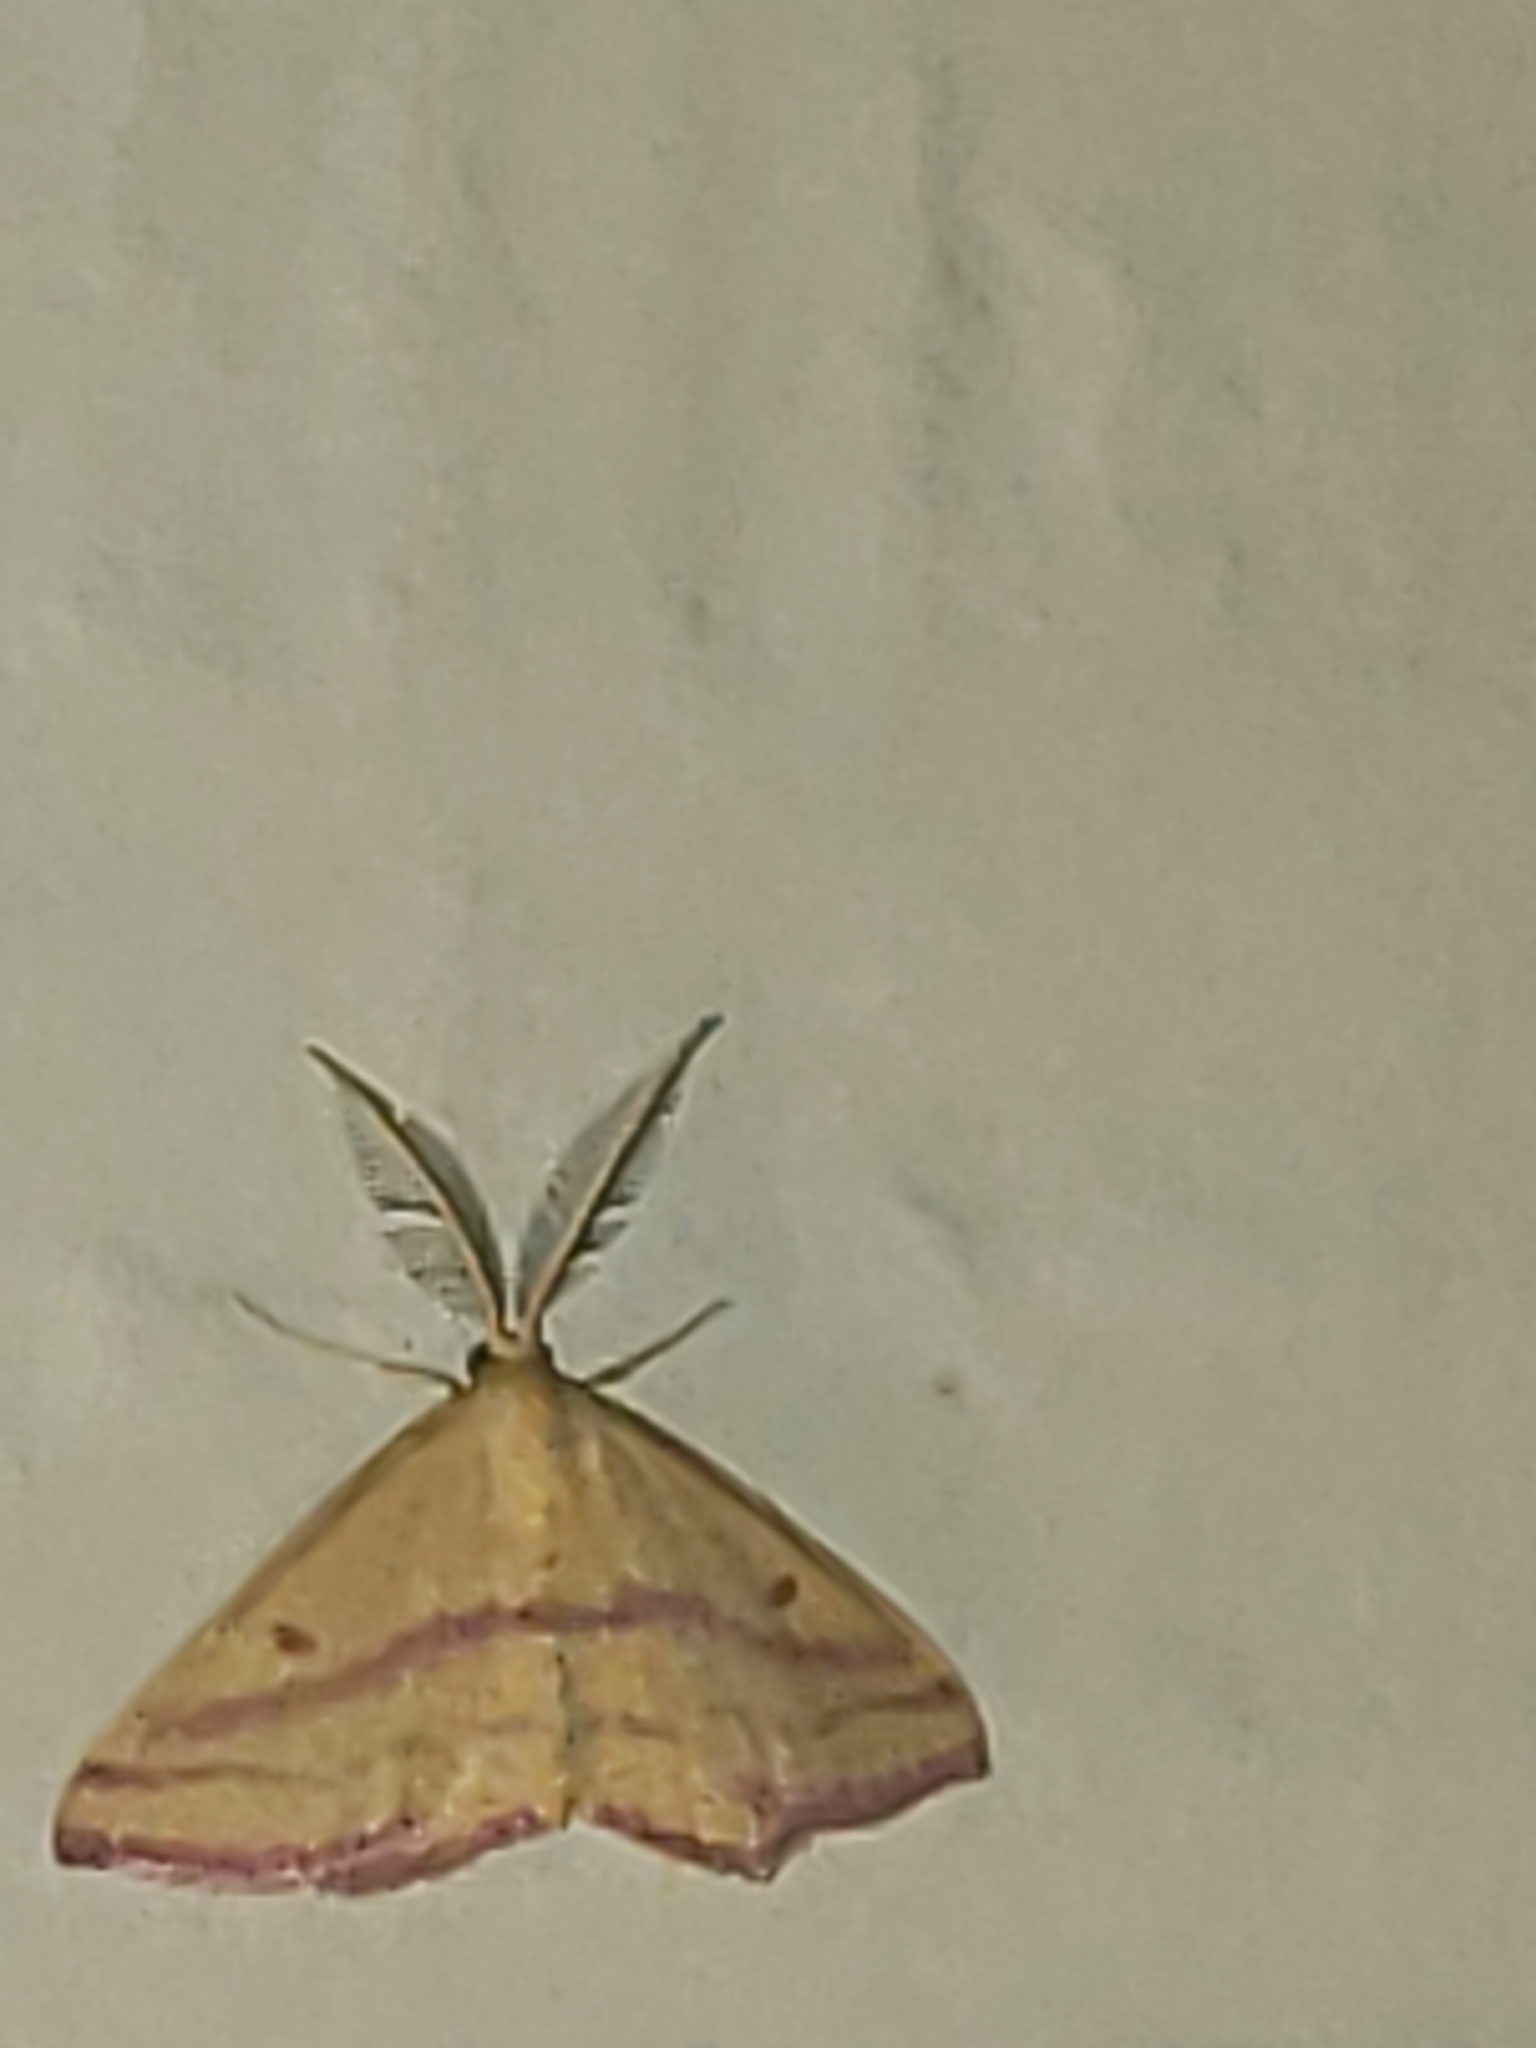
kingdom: Animalia
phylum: Arthropoda
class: Insecta
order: Lepidoptera
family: Geometridae
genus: Haematopis
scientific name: Haematopis grataria
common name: Chickweed geometer
